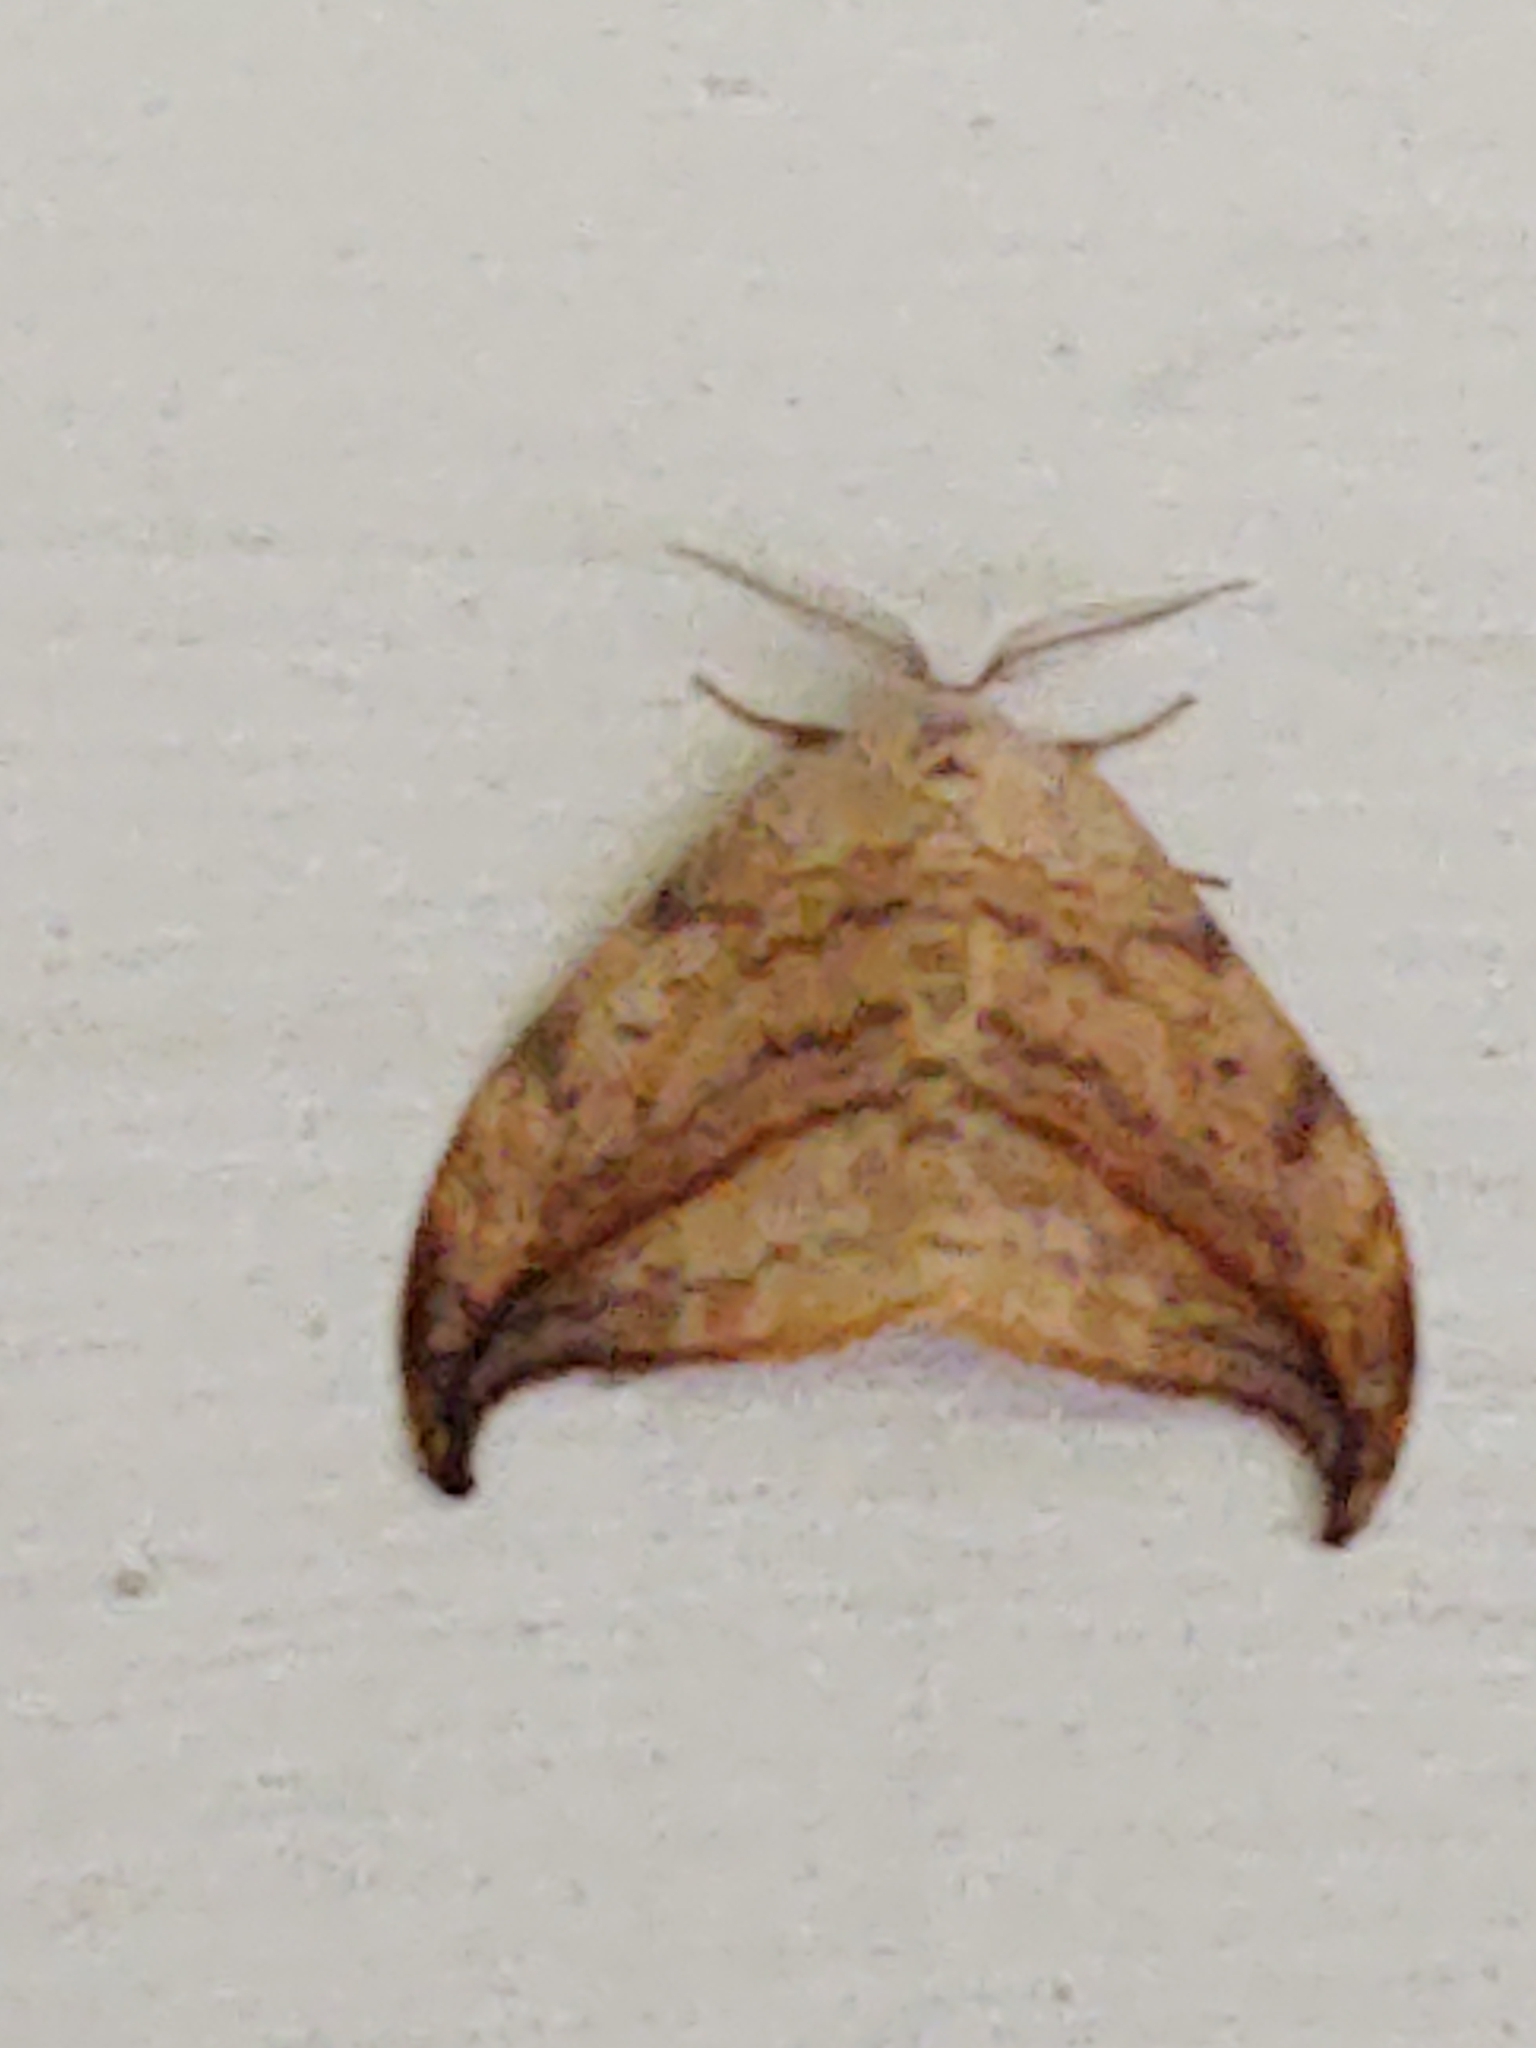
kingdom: Animalia
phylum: Arthropoda
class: Insecta
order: Lepidoptera
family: Drepanidae
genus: Drepana
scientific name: Drepana arcuata
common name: Arched hooktip moth
